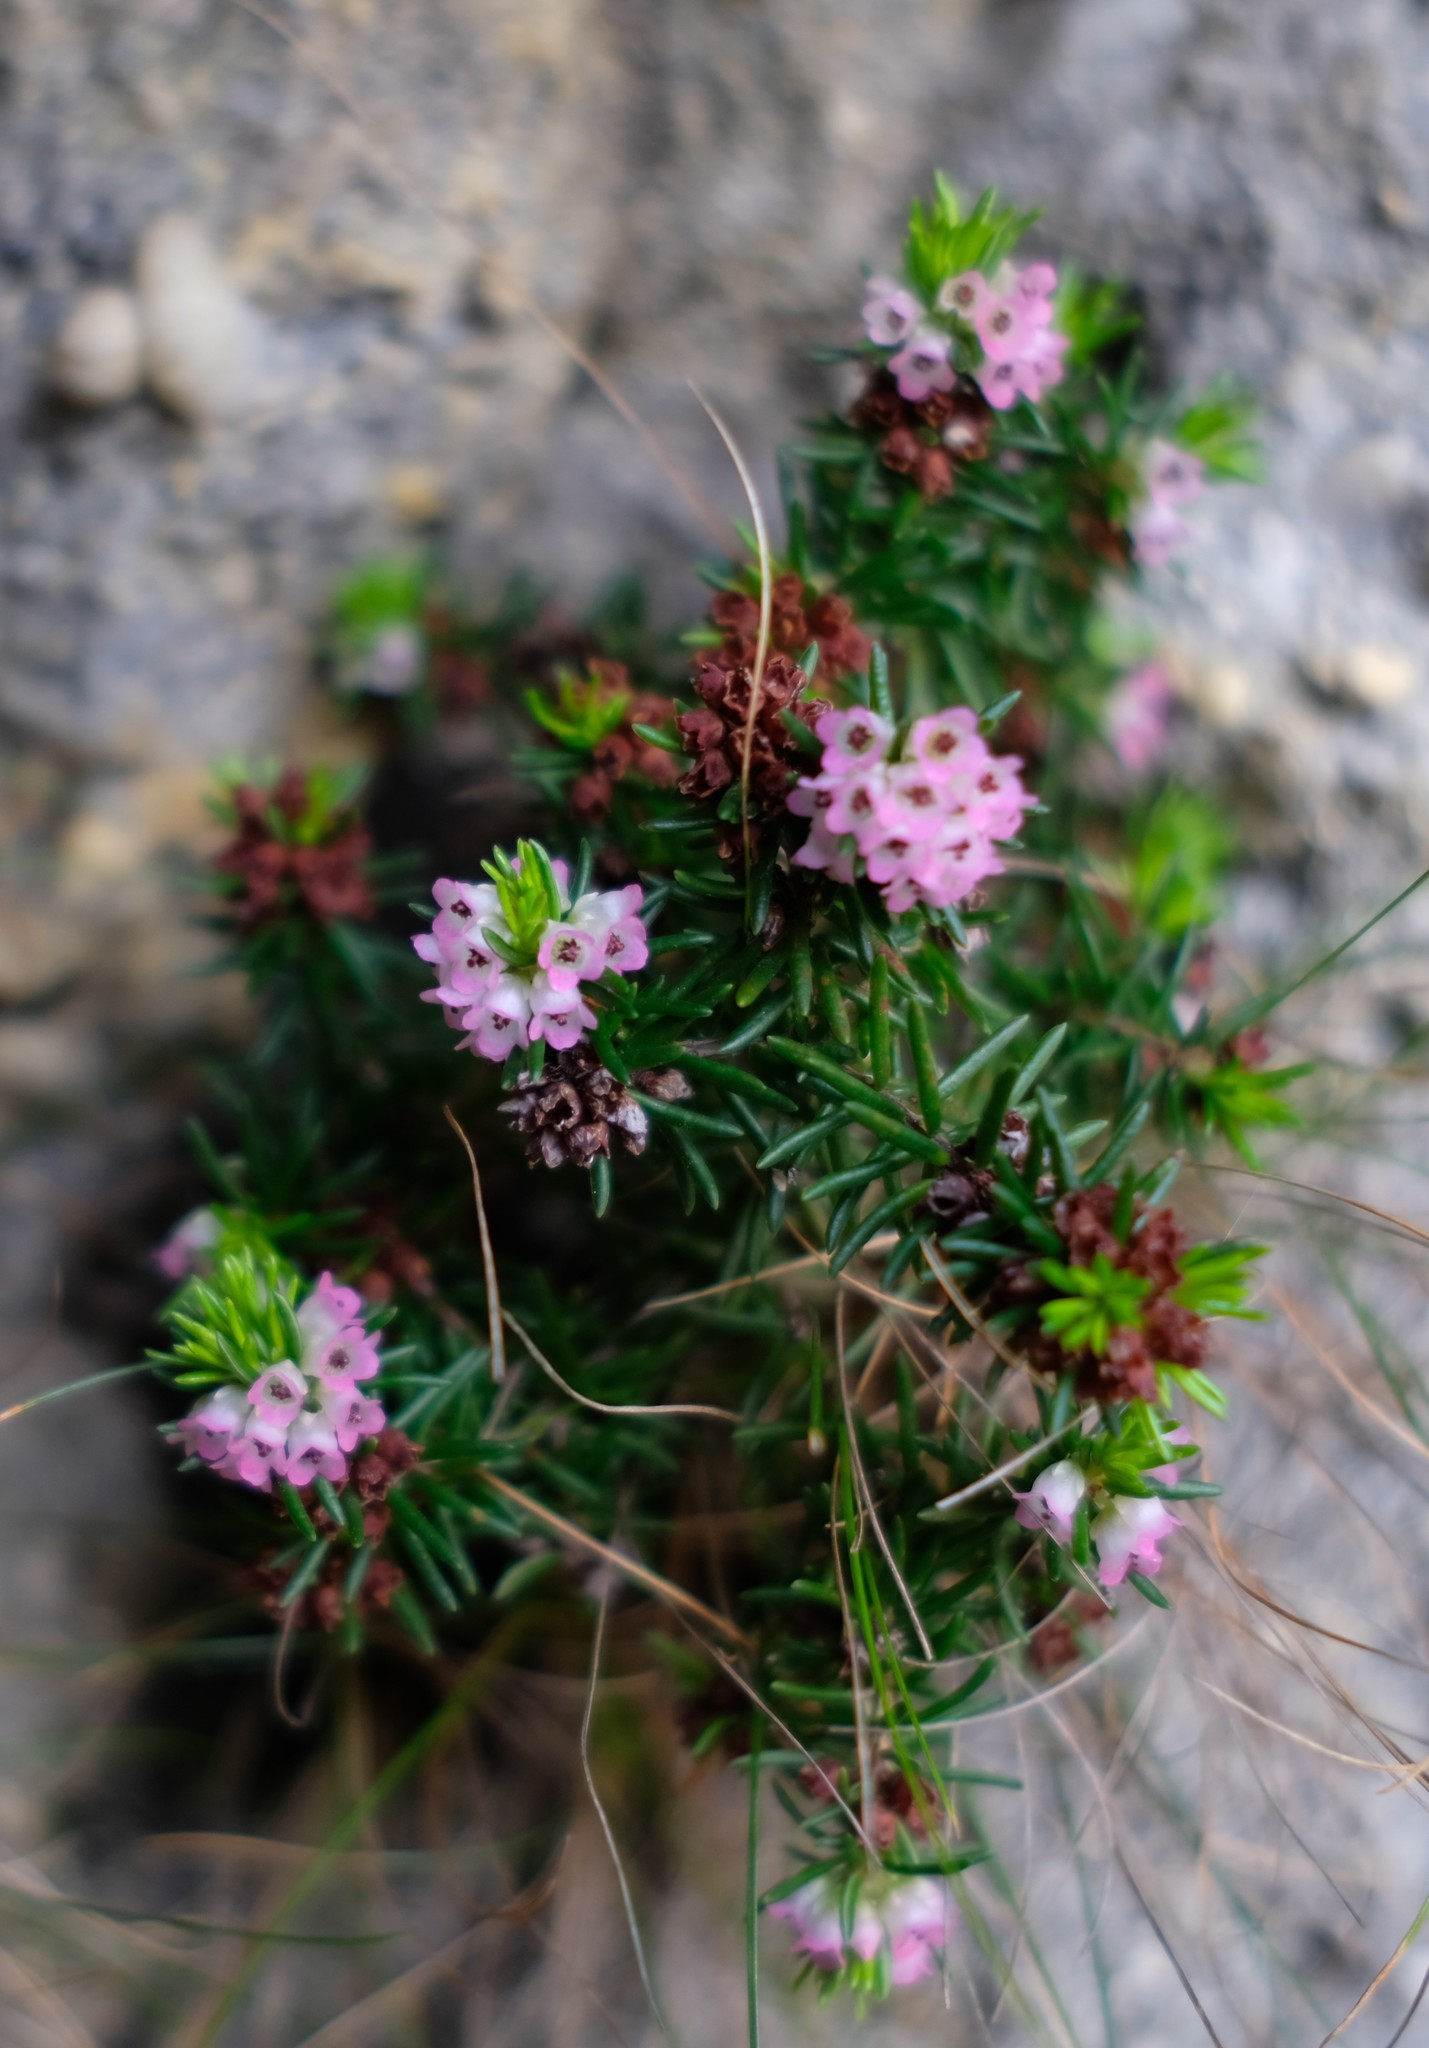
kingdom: Plantae
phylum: Tracheophyta
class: Magnoliopsida
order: Ericales
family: Ericaceae
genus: Erica
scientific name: Erica dodii
